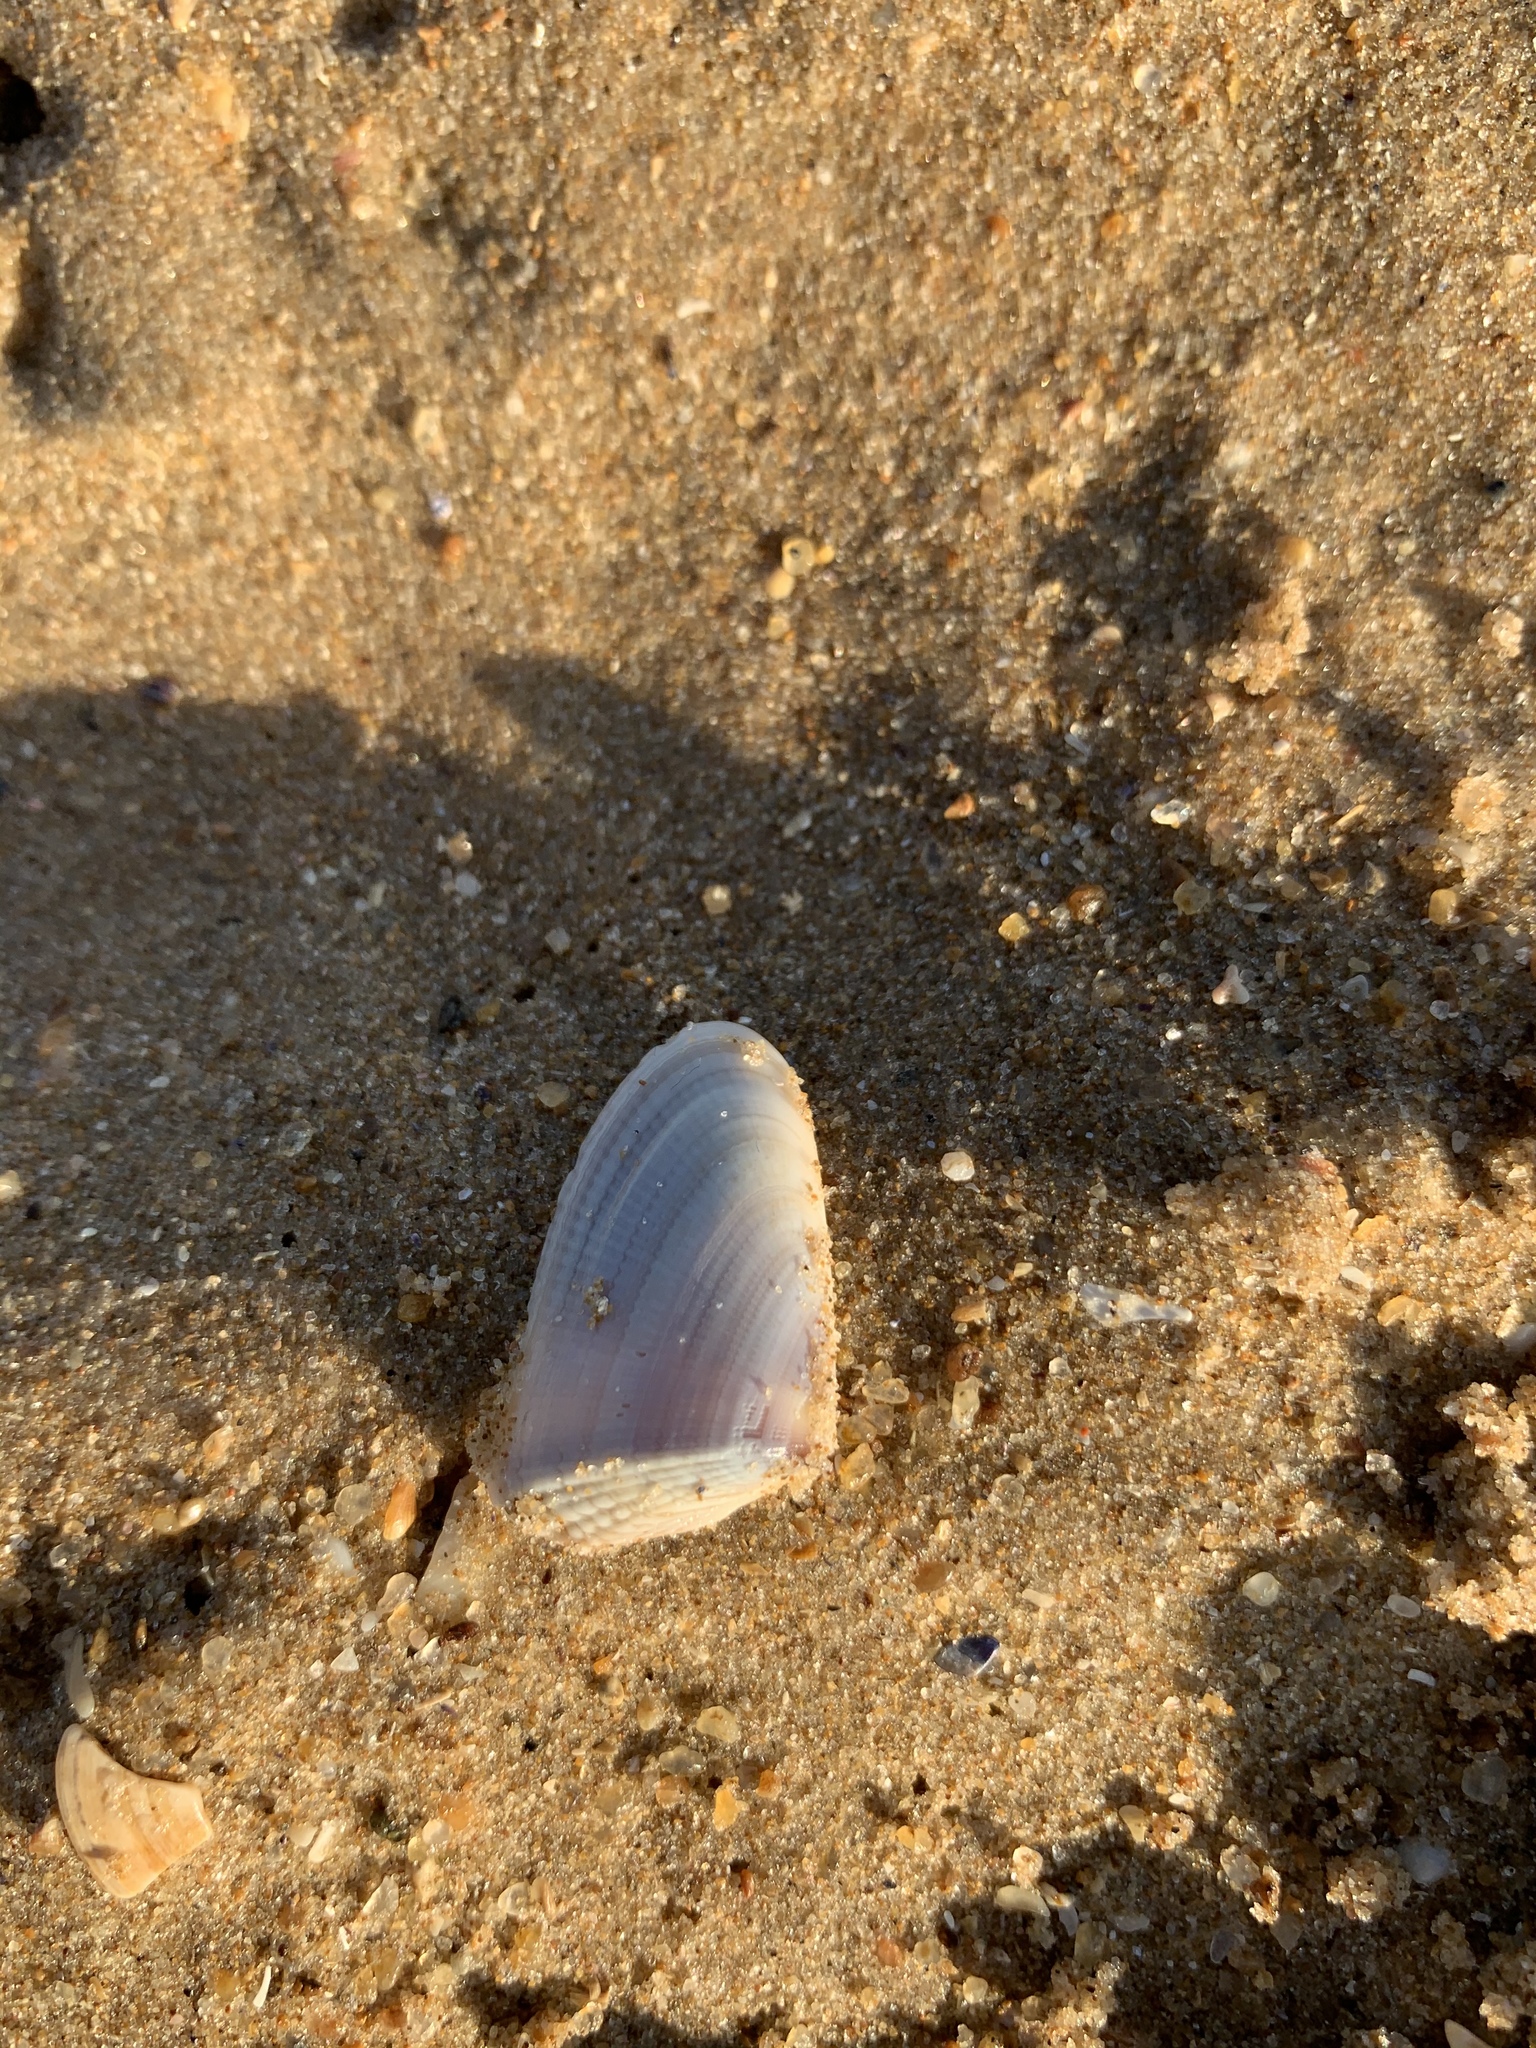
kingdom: Animalia
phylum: Mollusca
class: Bivalvia
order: Cardiida
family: Donacidae
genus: Donax
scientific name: Donax hanleyanus
